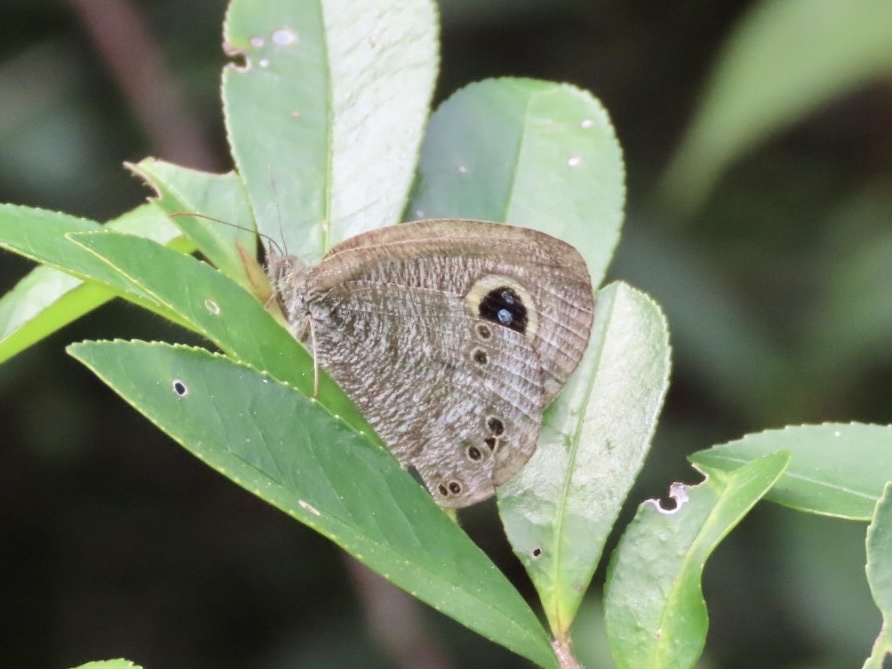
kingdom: Animalia
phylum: Arthropoda
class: Insecta
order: Lepidoptera
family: Nymphalidae
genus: Ypthima
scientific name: Ypthima baldus
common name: Common five-ring
